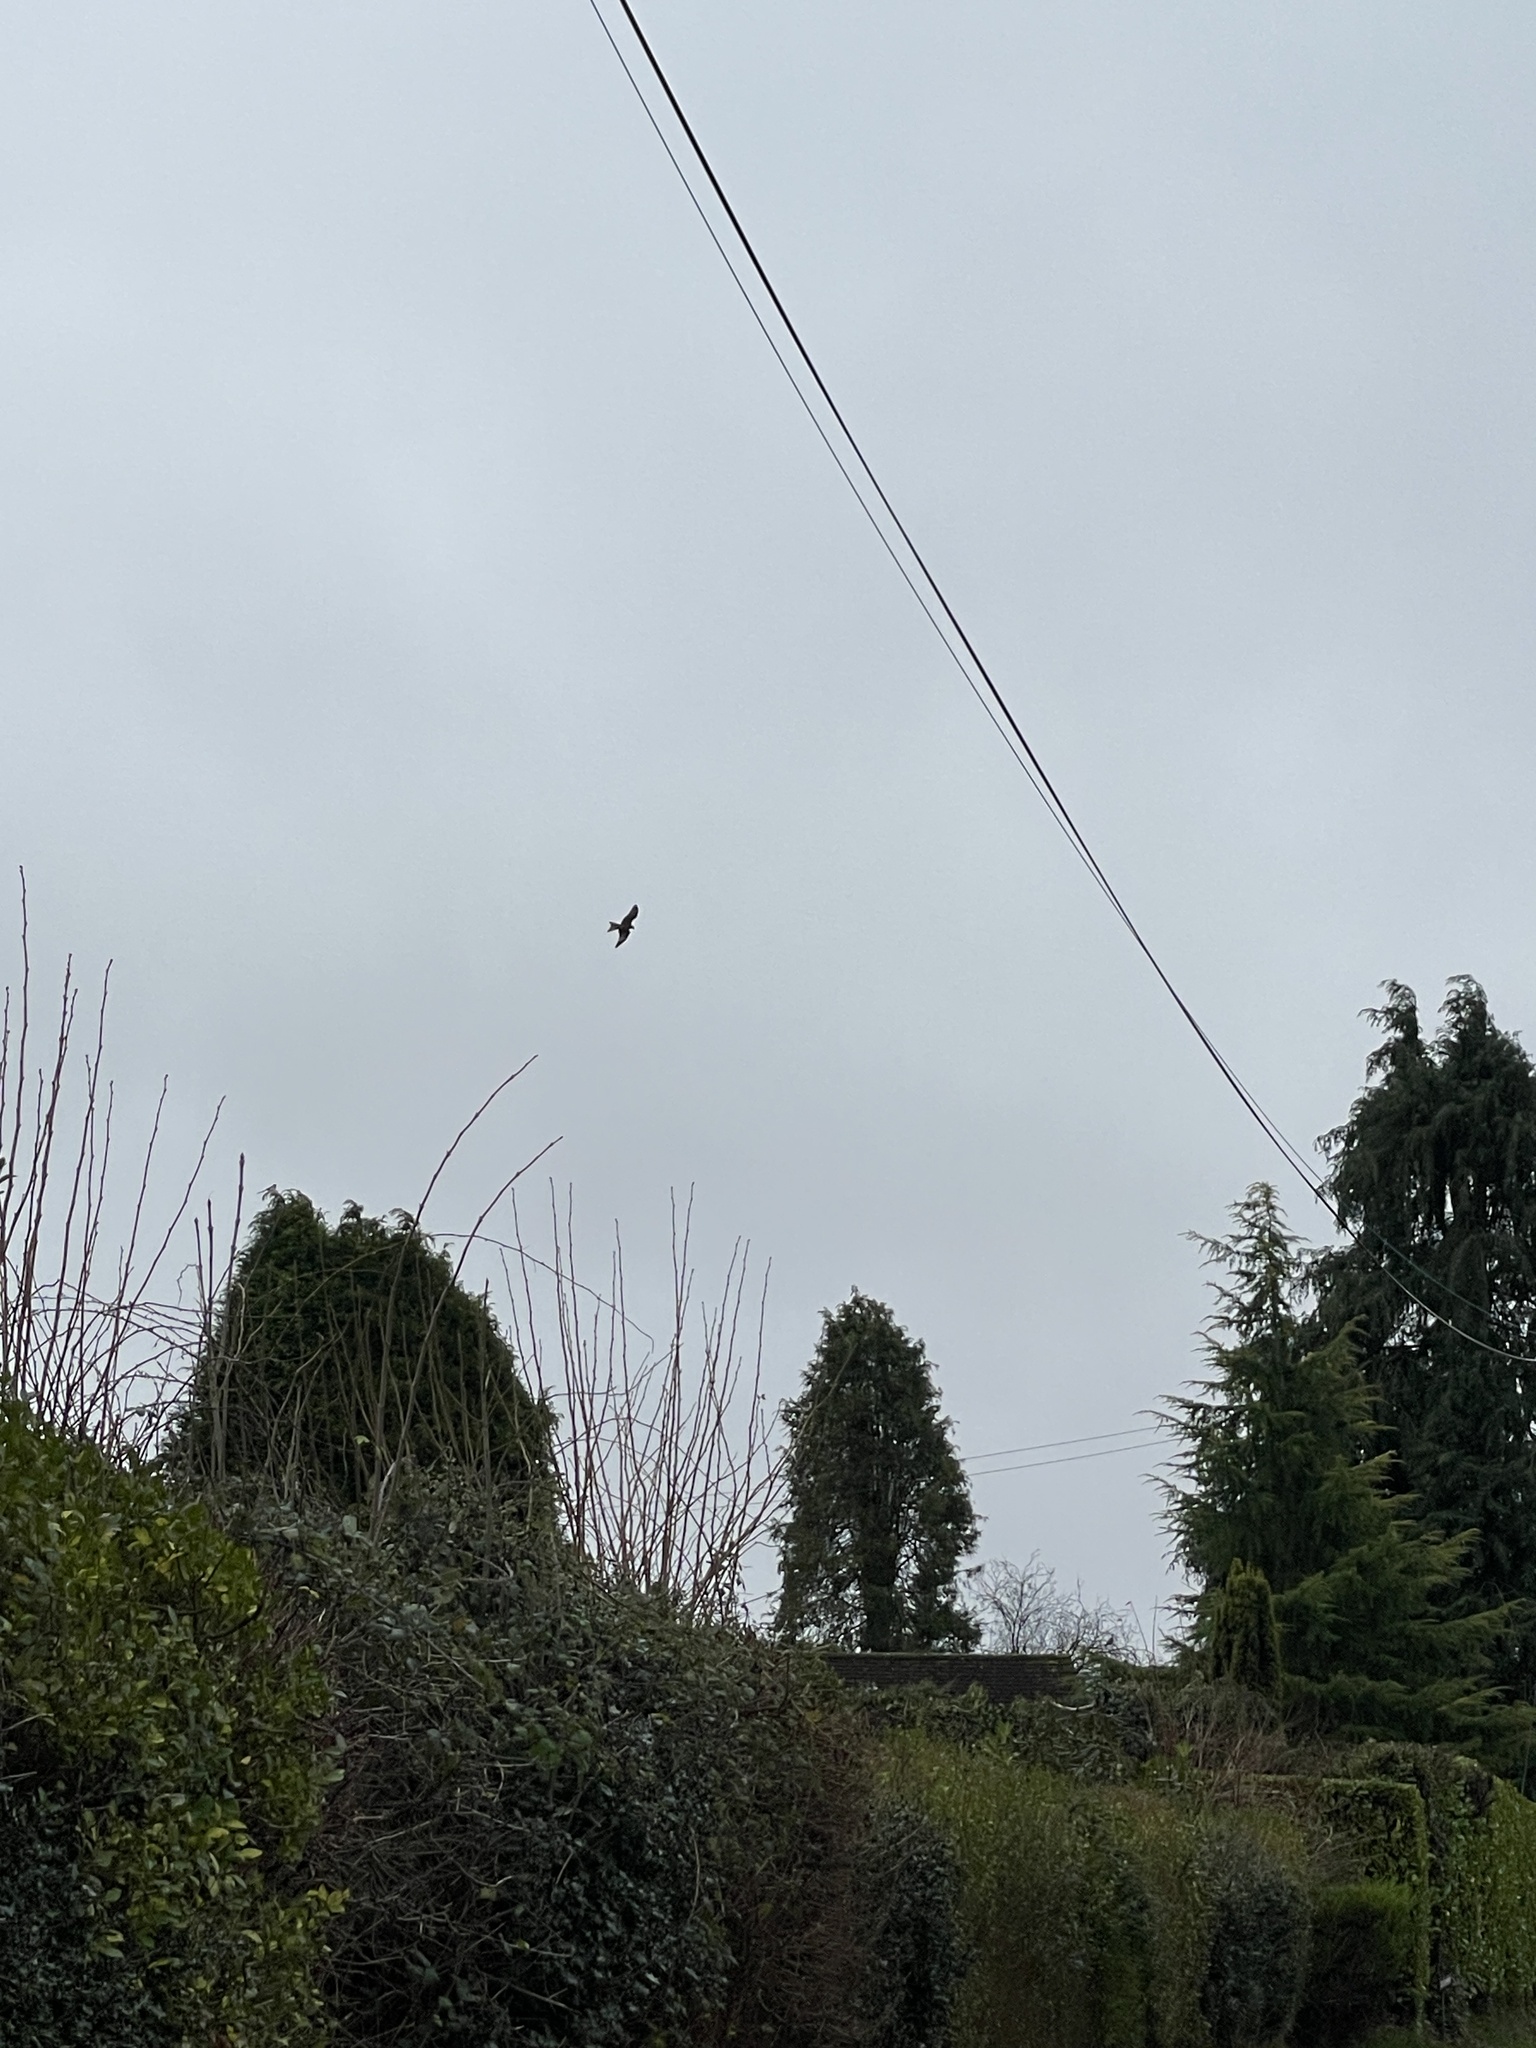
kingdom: Animalia
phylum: Chordata
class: Aves
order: Accipitriformes
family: Accipitridae
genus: Milvus
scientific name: Milvus milvus
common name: Red kite
